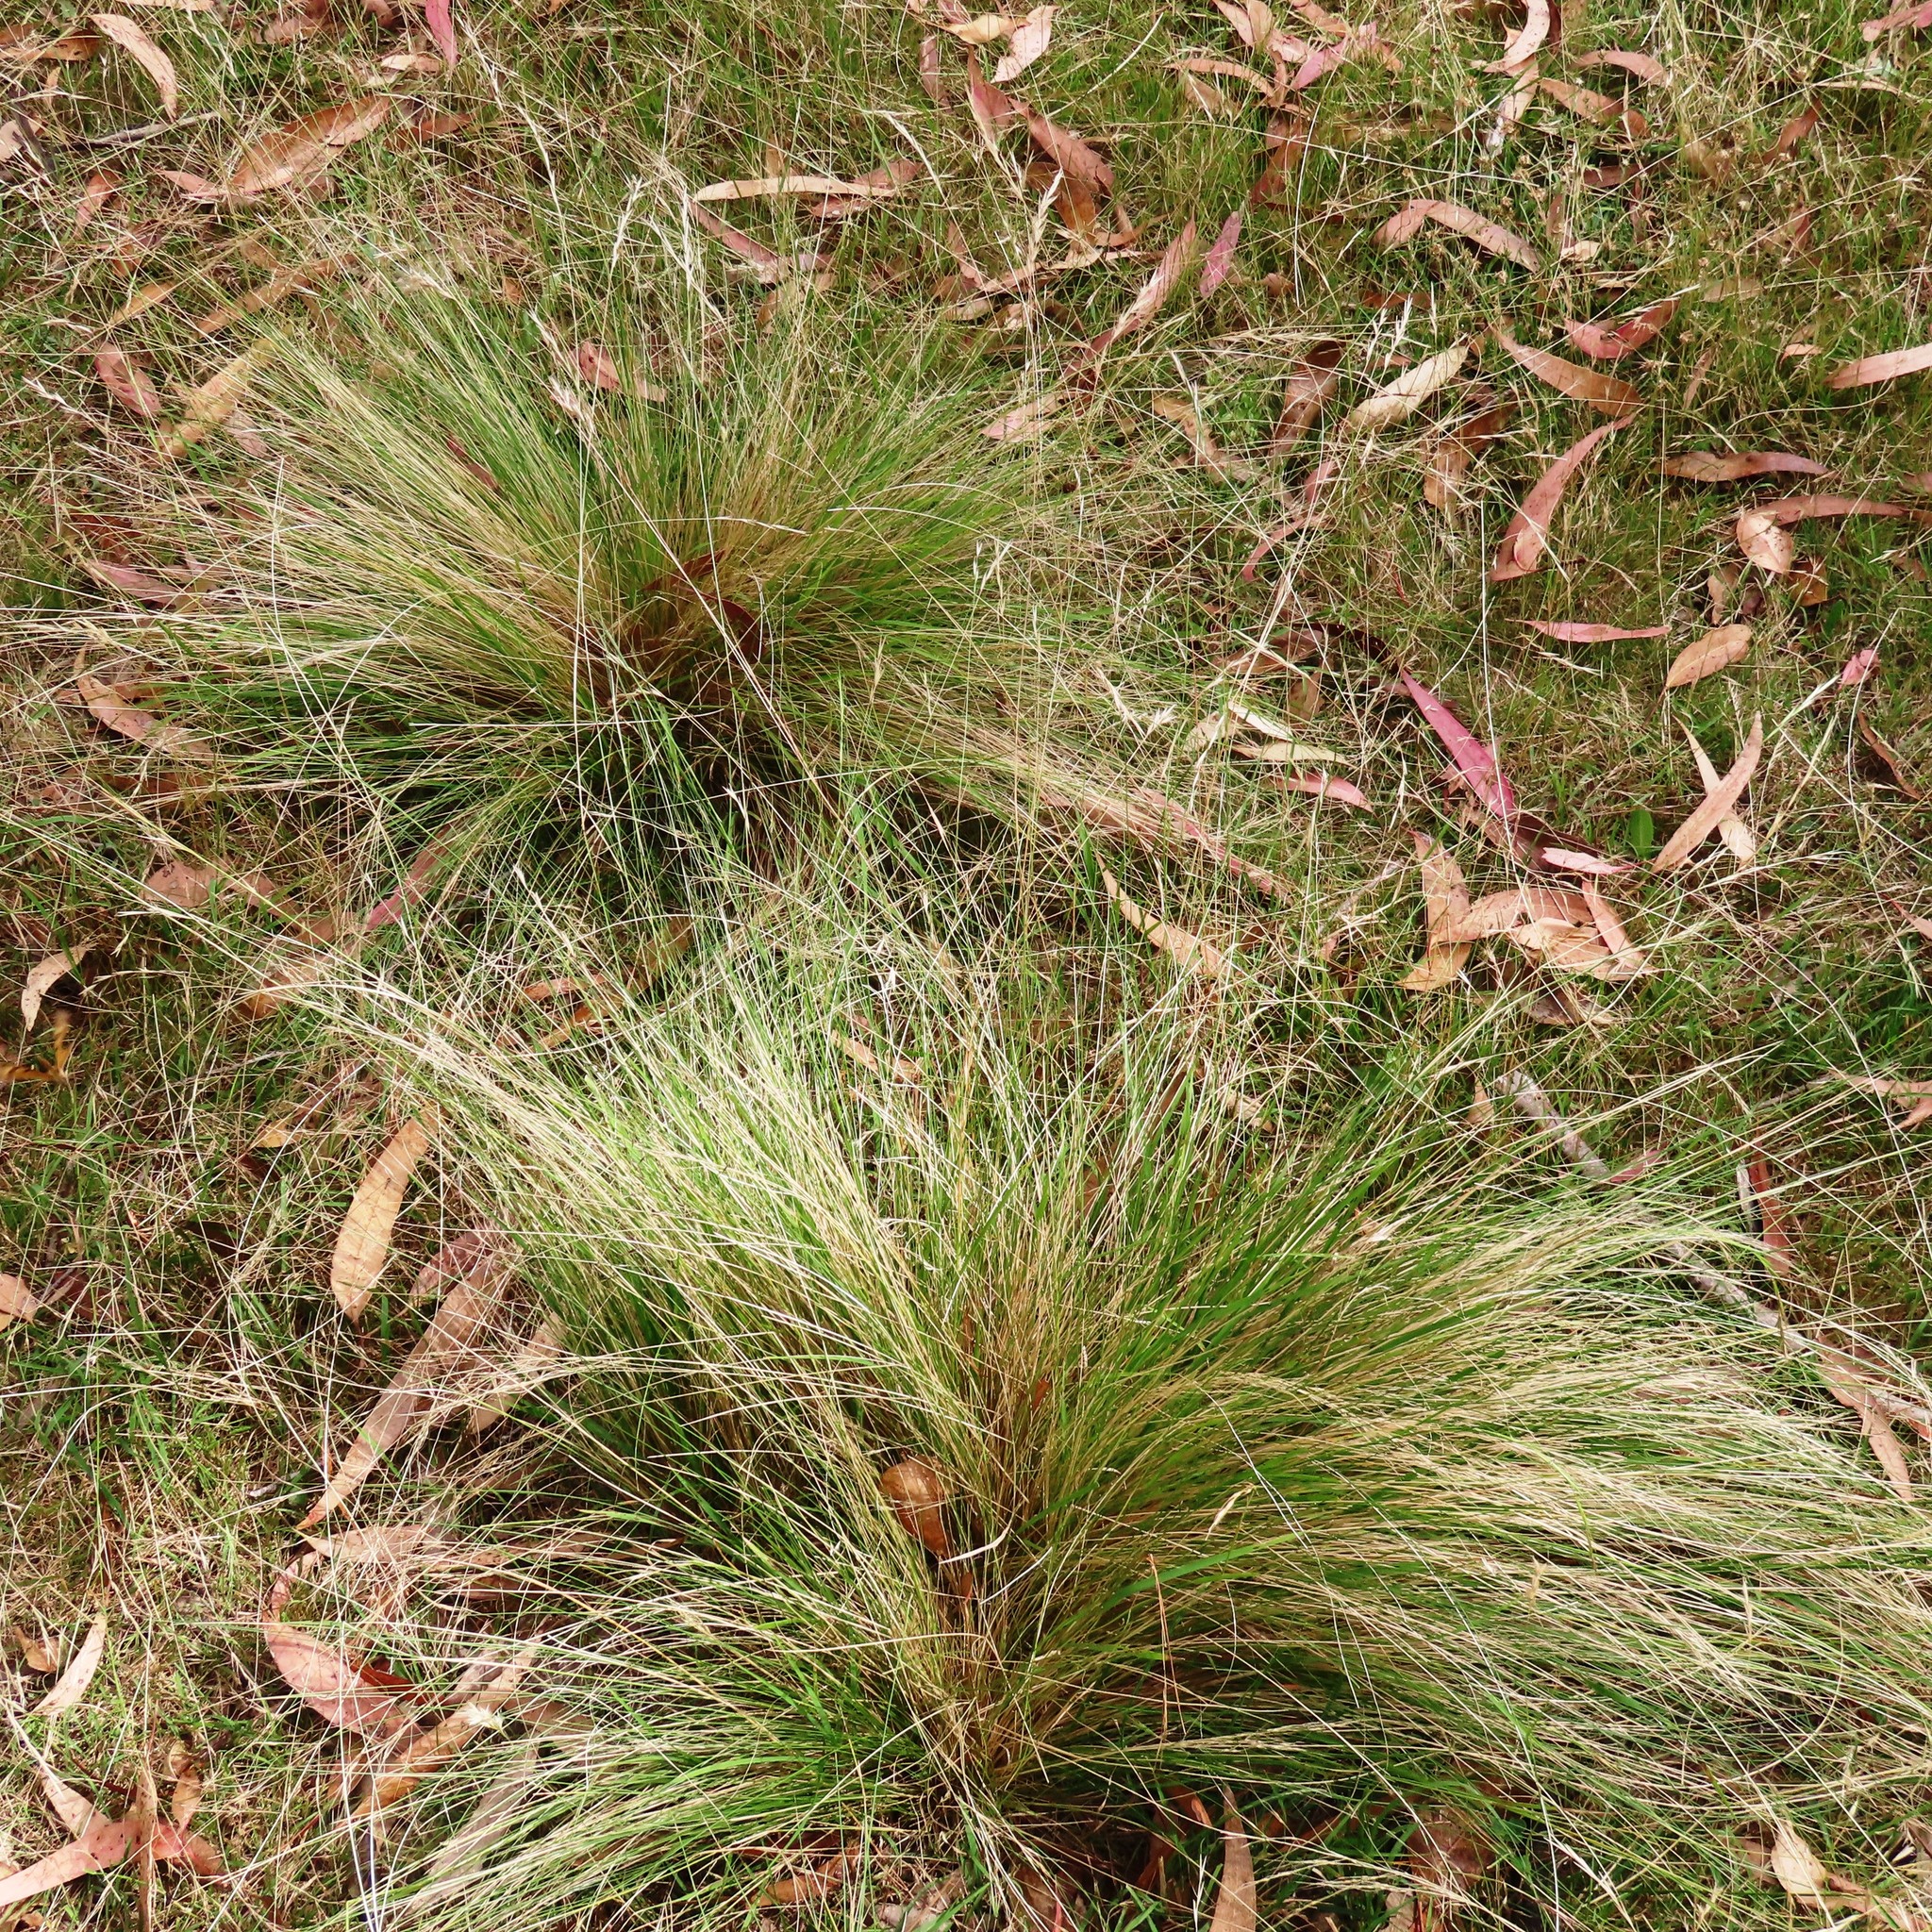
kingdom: Plantae
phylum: Tracheophyta
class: Liliopsida
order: Poales
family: Poaceae
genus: Nassella
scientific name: Nassella trichotoma
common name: Serrated tussock grass
